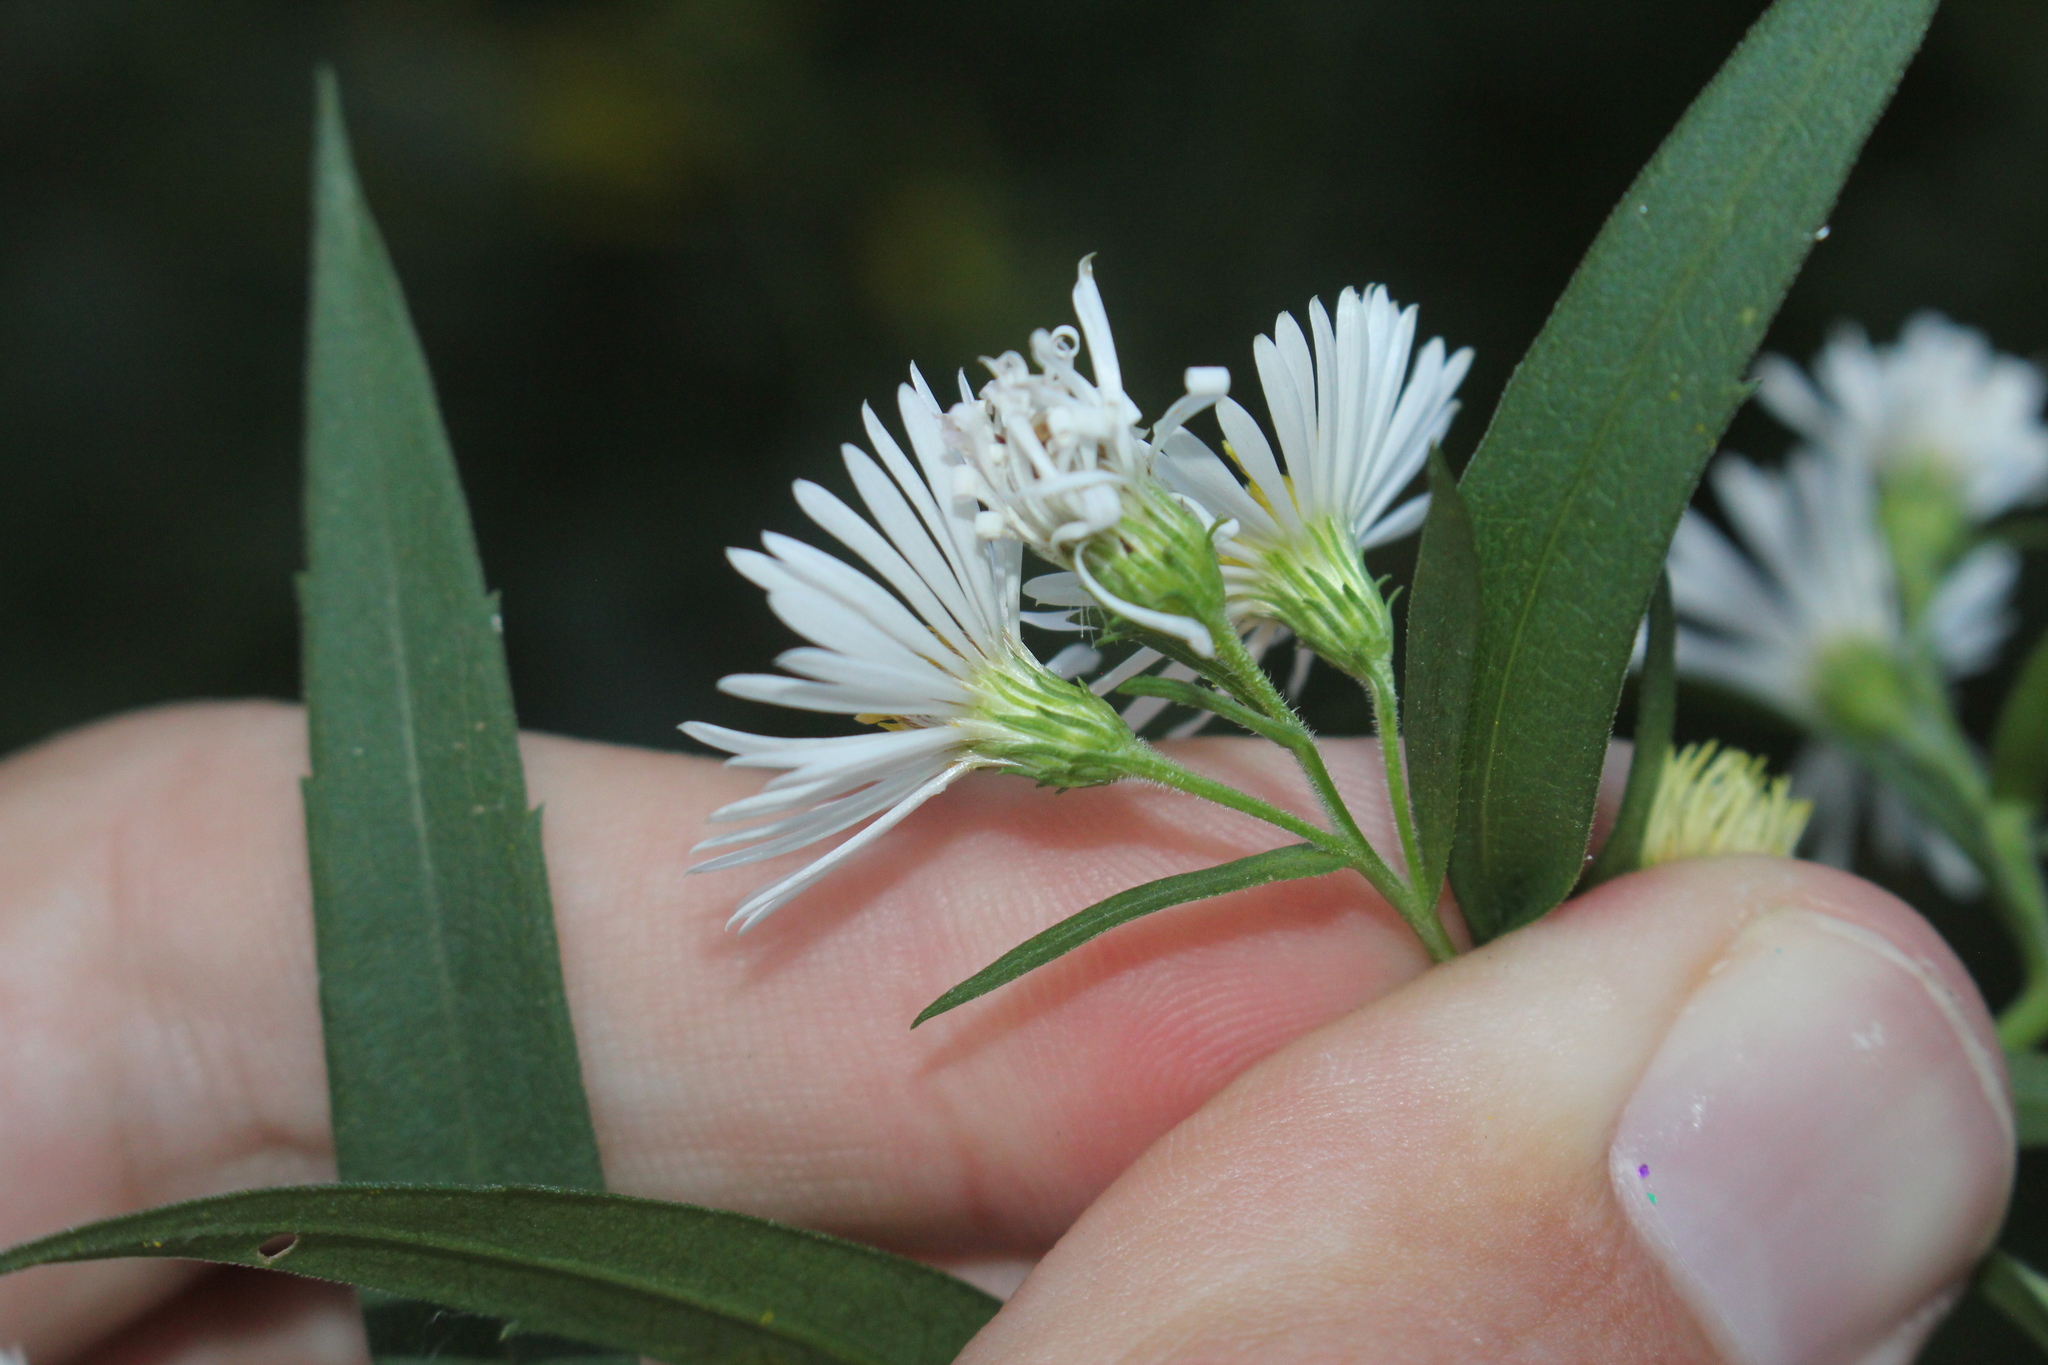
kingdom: Plantae
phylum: Tracheophyta
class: Magnoliopsida
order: Asterales
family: Asteraceae
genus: Symphyotrichum
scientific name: Symphyotrichum lanceolatum
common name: Panicled aster
